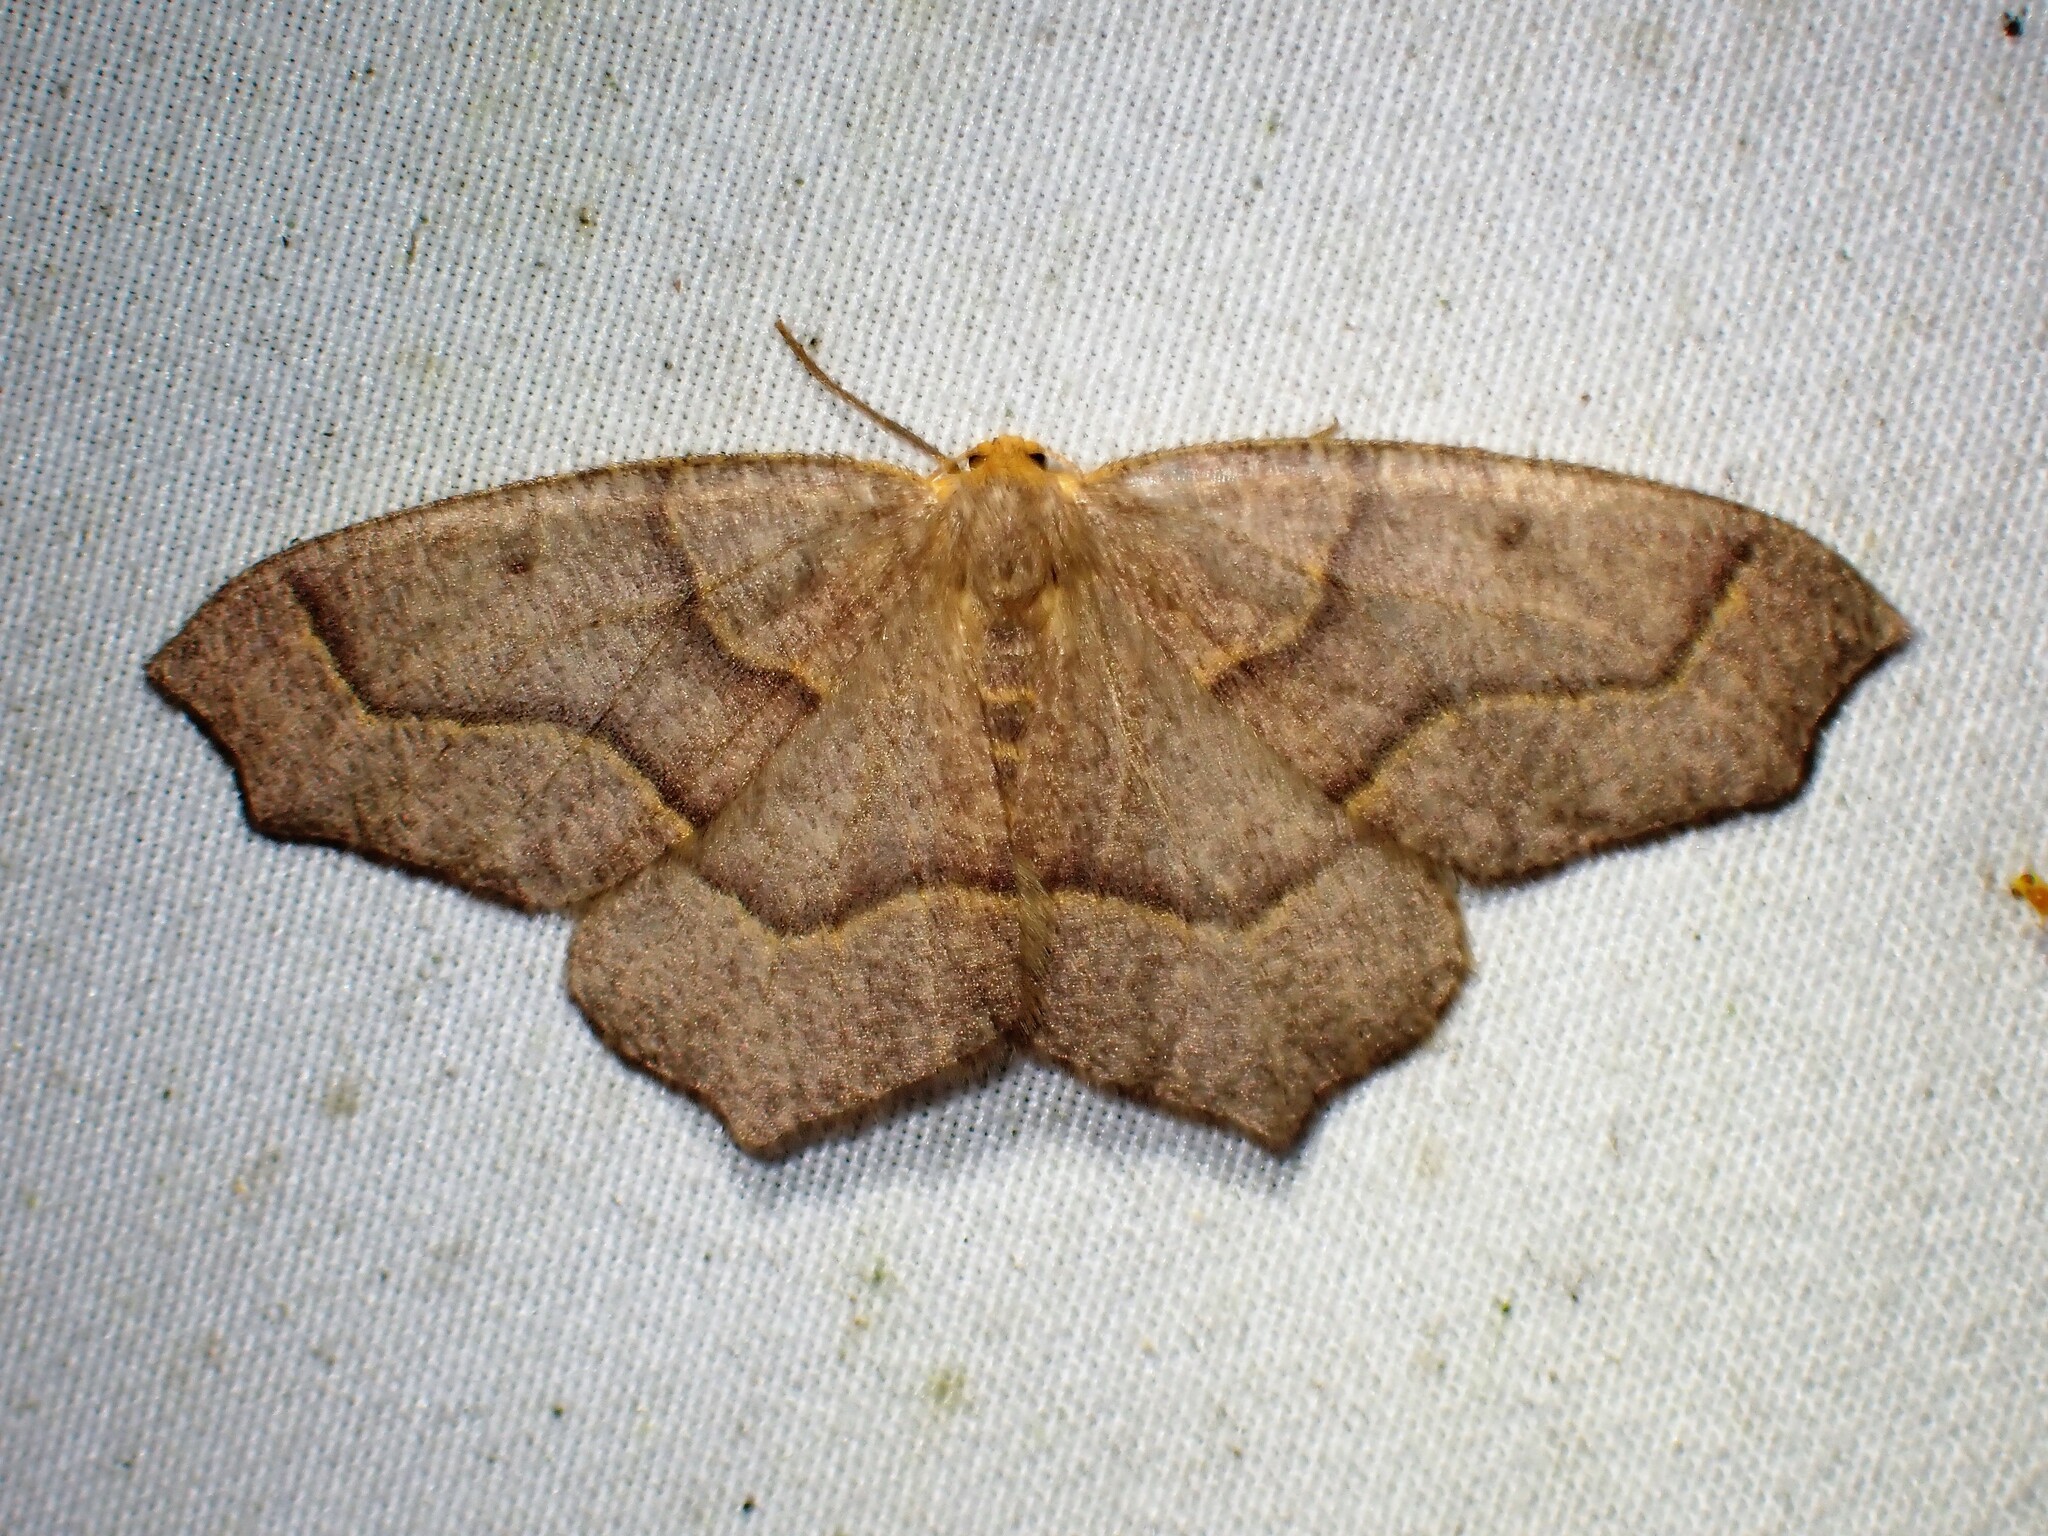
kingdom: Animalia
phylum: Arthropoda
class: Insecta
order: Lepidoptera
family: Geometridae
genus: Lambdina
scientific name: Lambdina fiscellaria
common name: Hemlock looper
